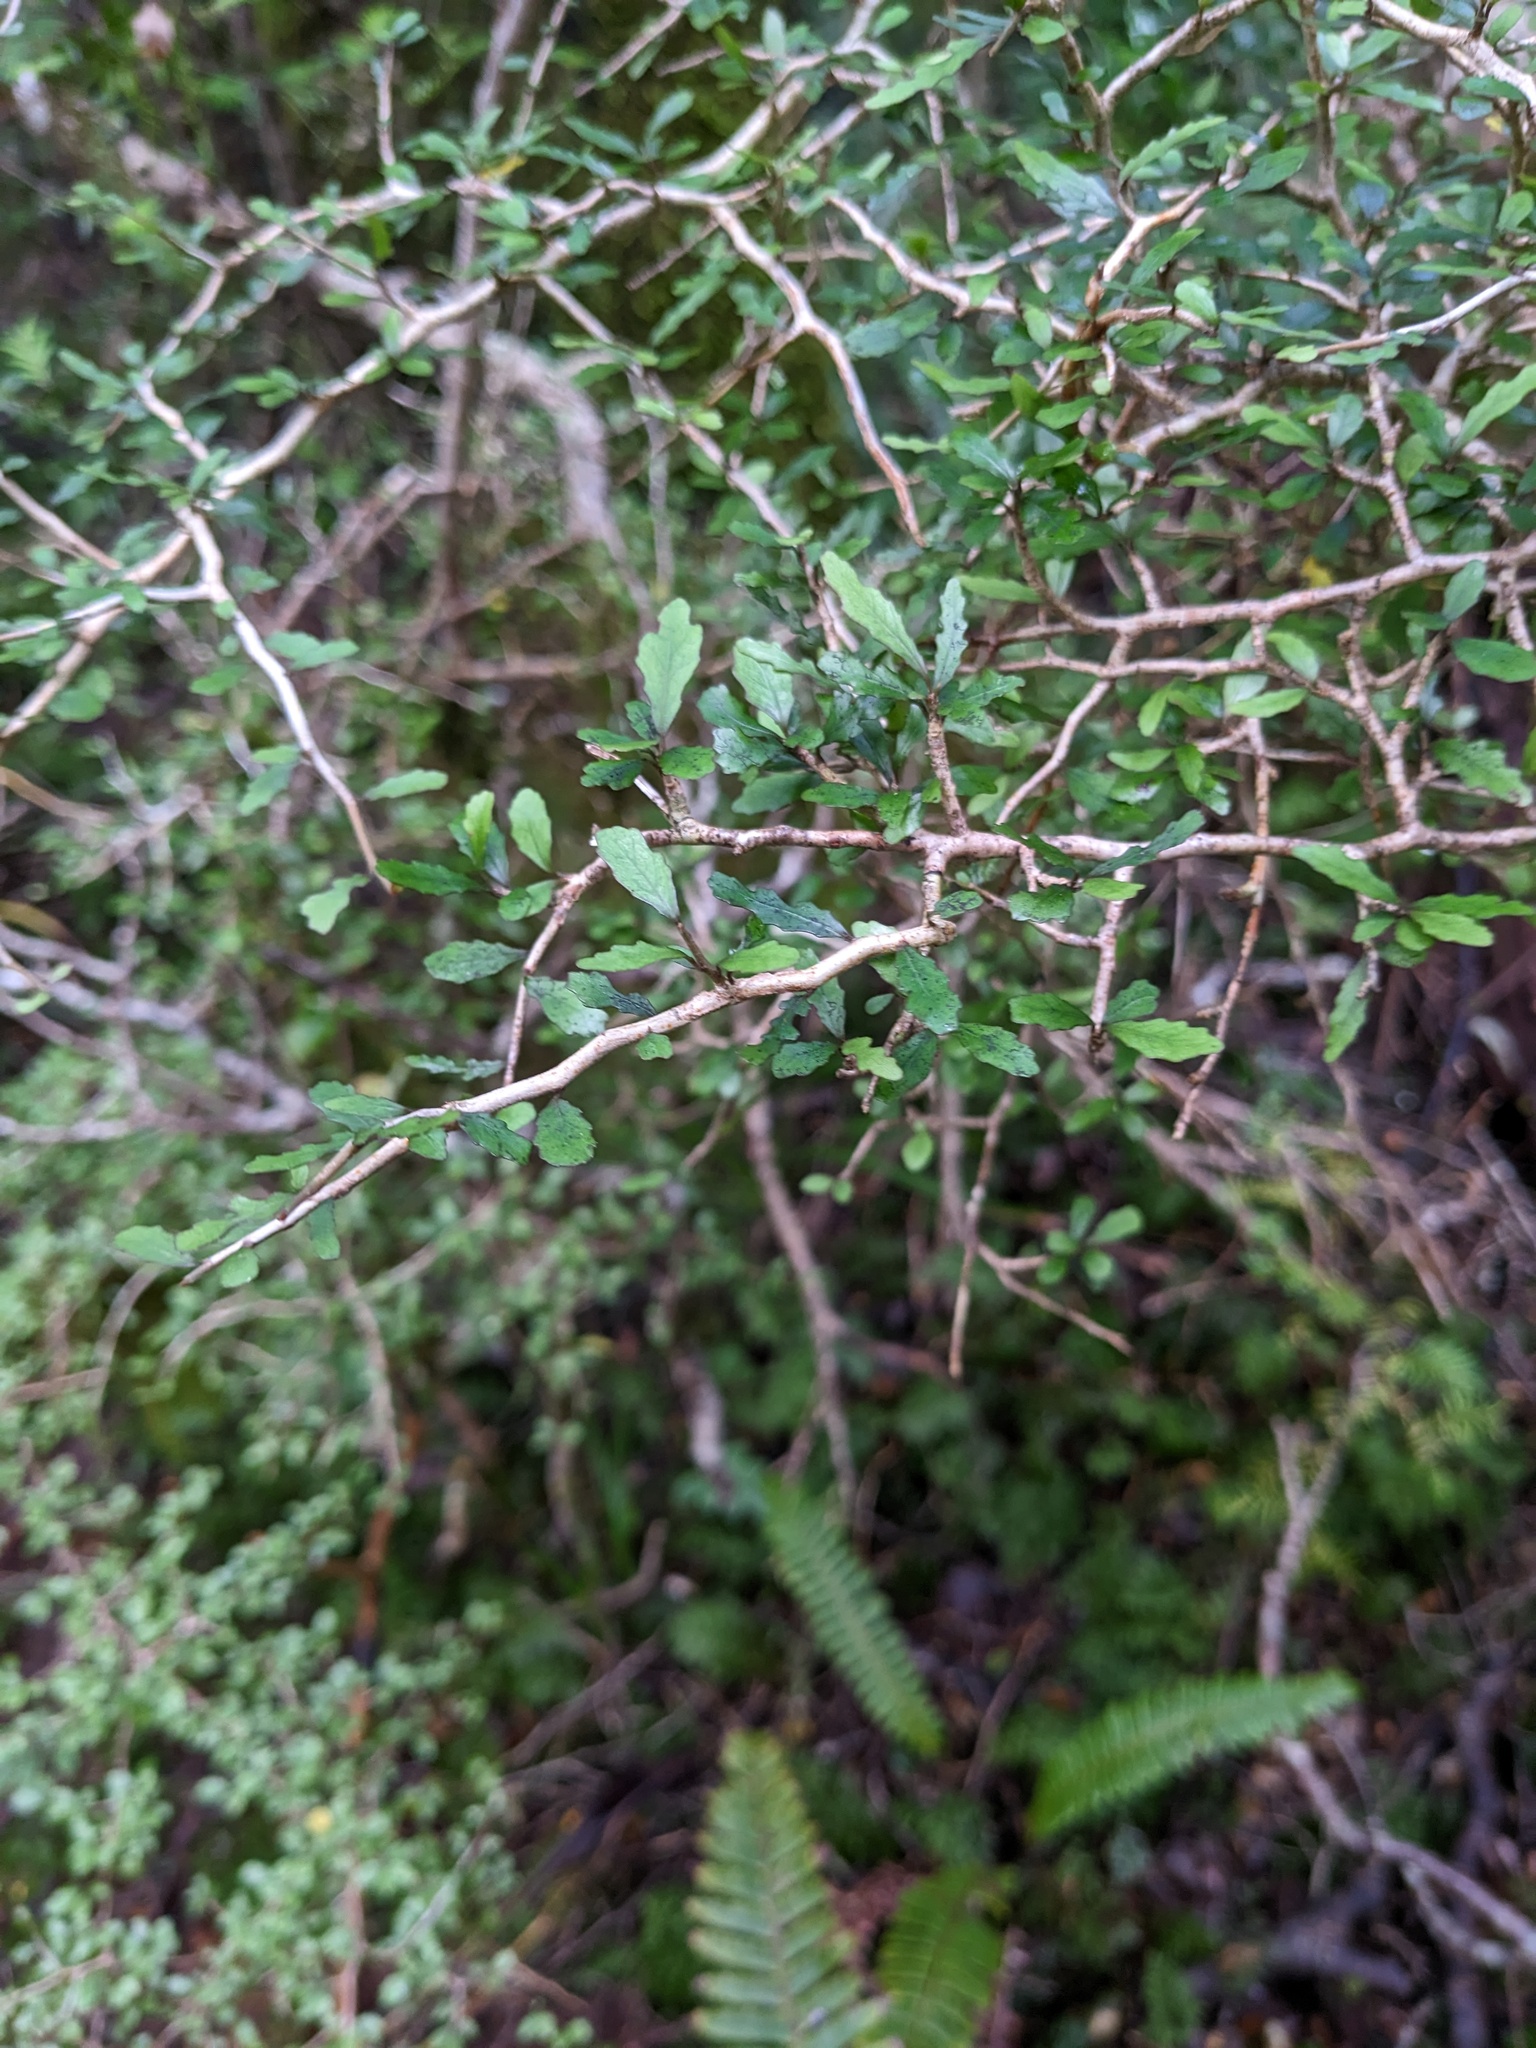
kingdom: Plantae
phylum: Tracheophyta
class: Magnoliopsida
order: Oxalidales
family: Elaeocarpaceae
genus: Elaeocarpus
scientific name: Elaeocarpus hookerianus
